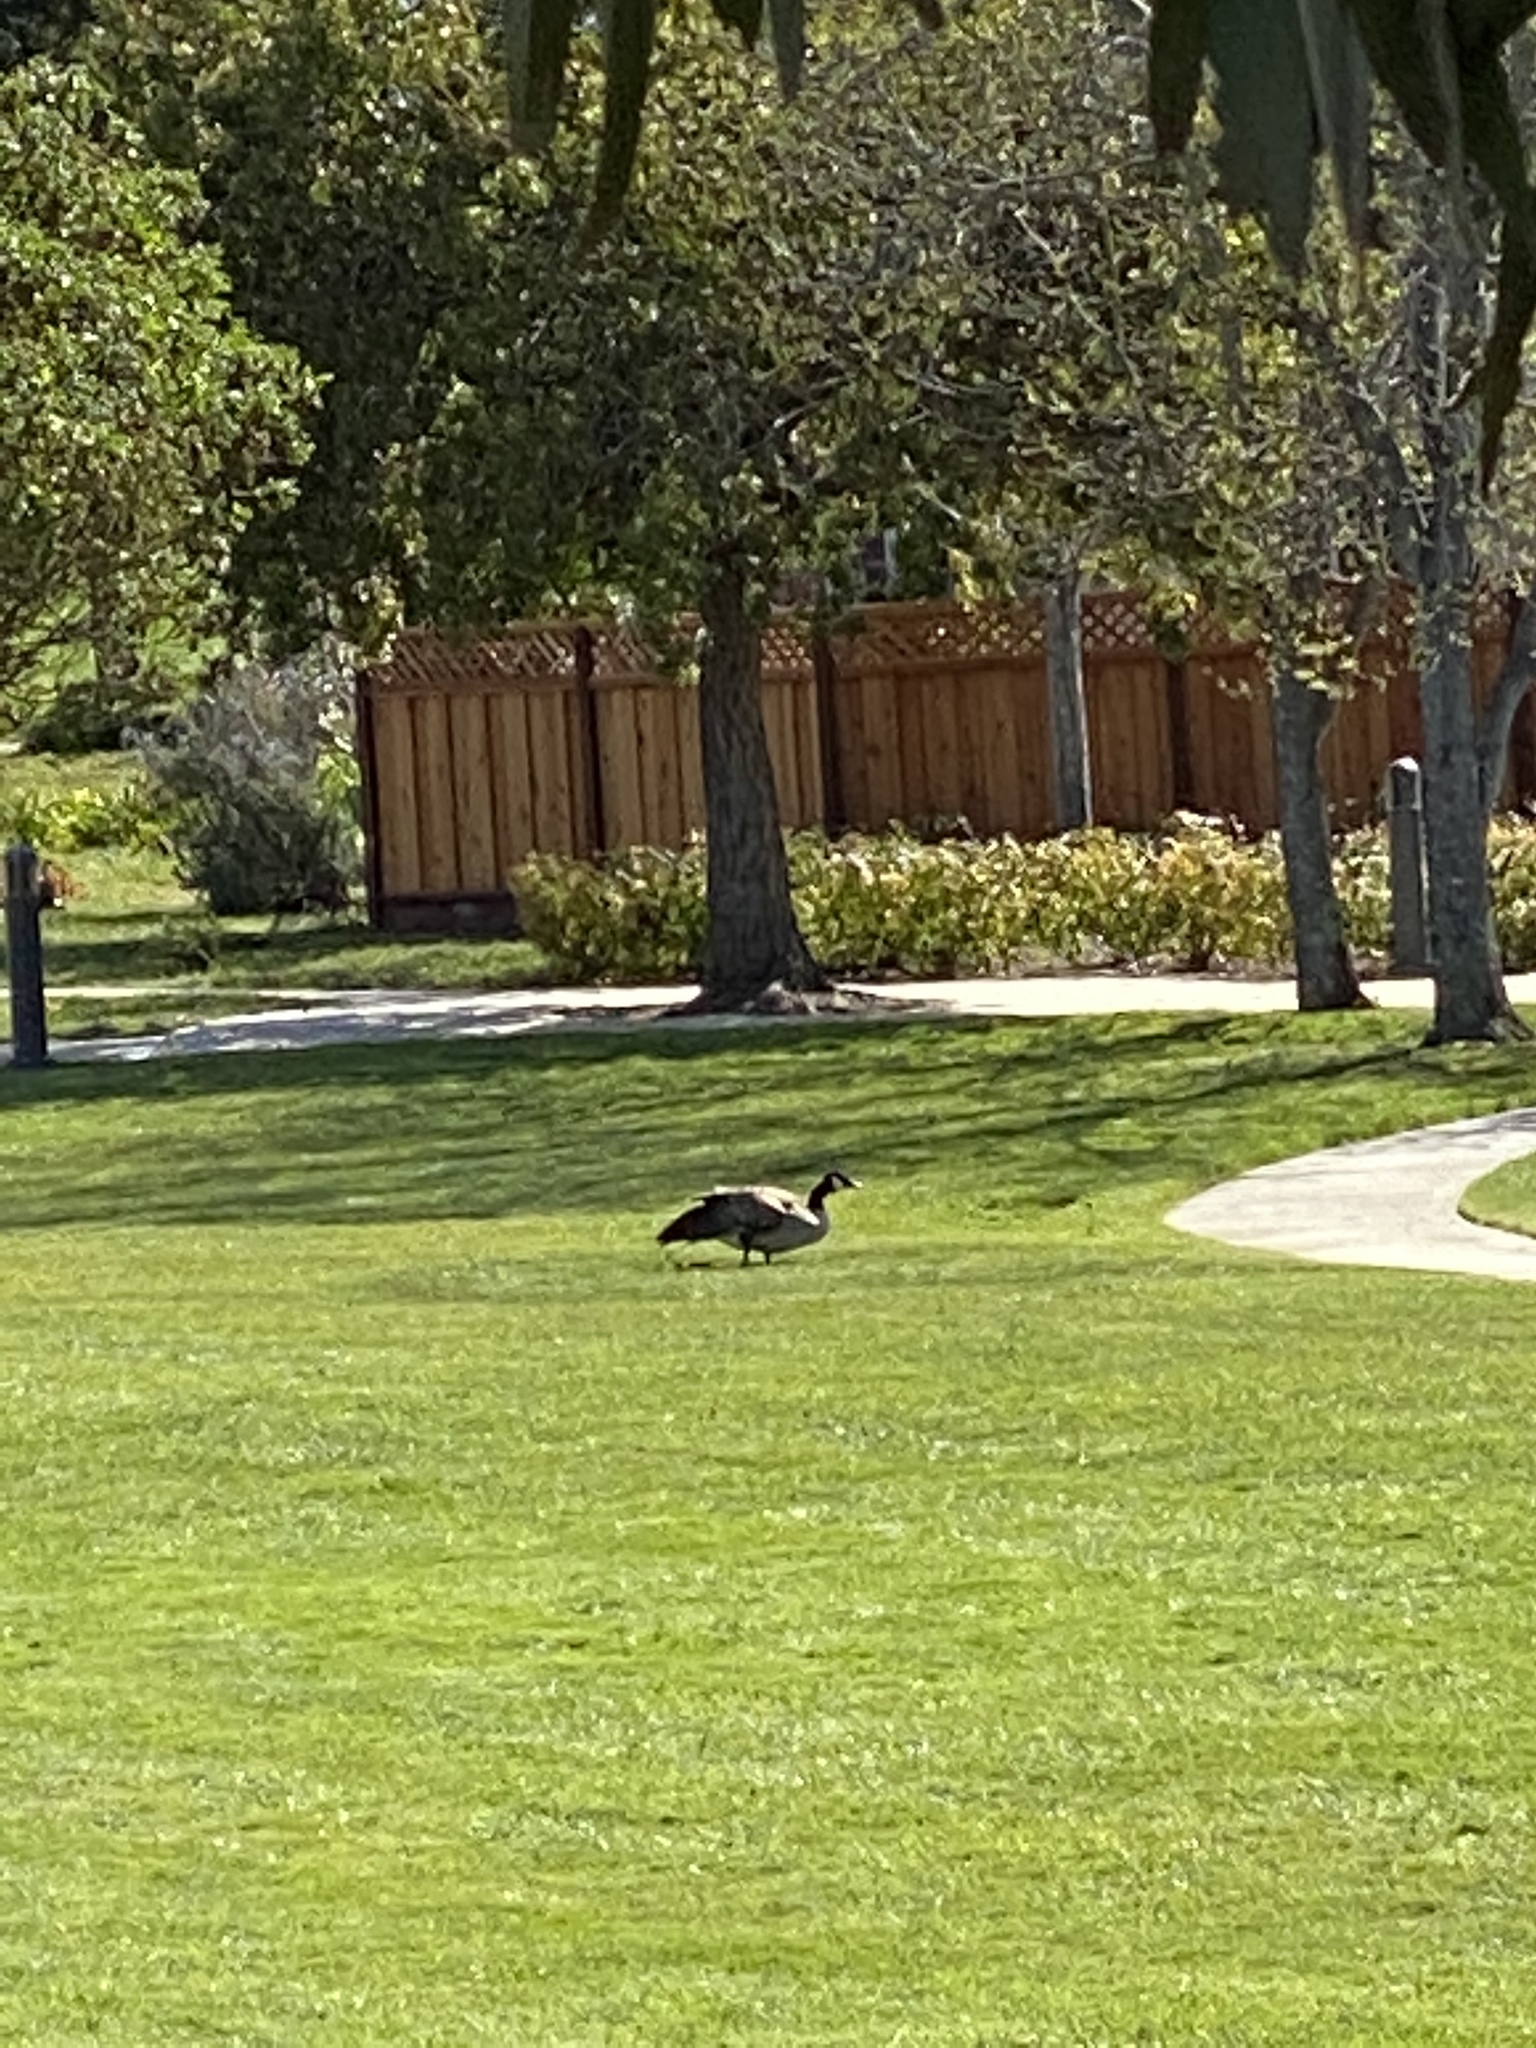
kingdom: Animalia
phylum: Chordata
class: Aves
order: Anseriformes
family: Anatidae
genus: Branta
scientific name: Branta canadensis
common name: Canada goose
